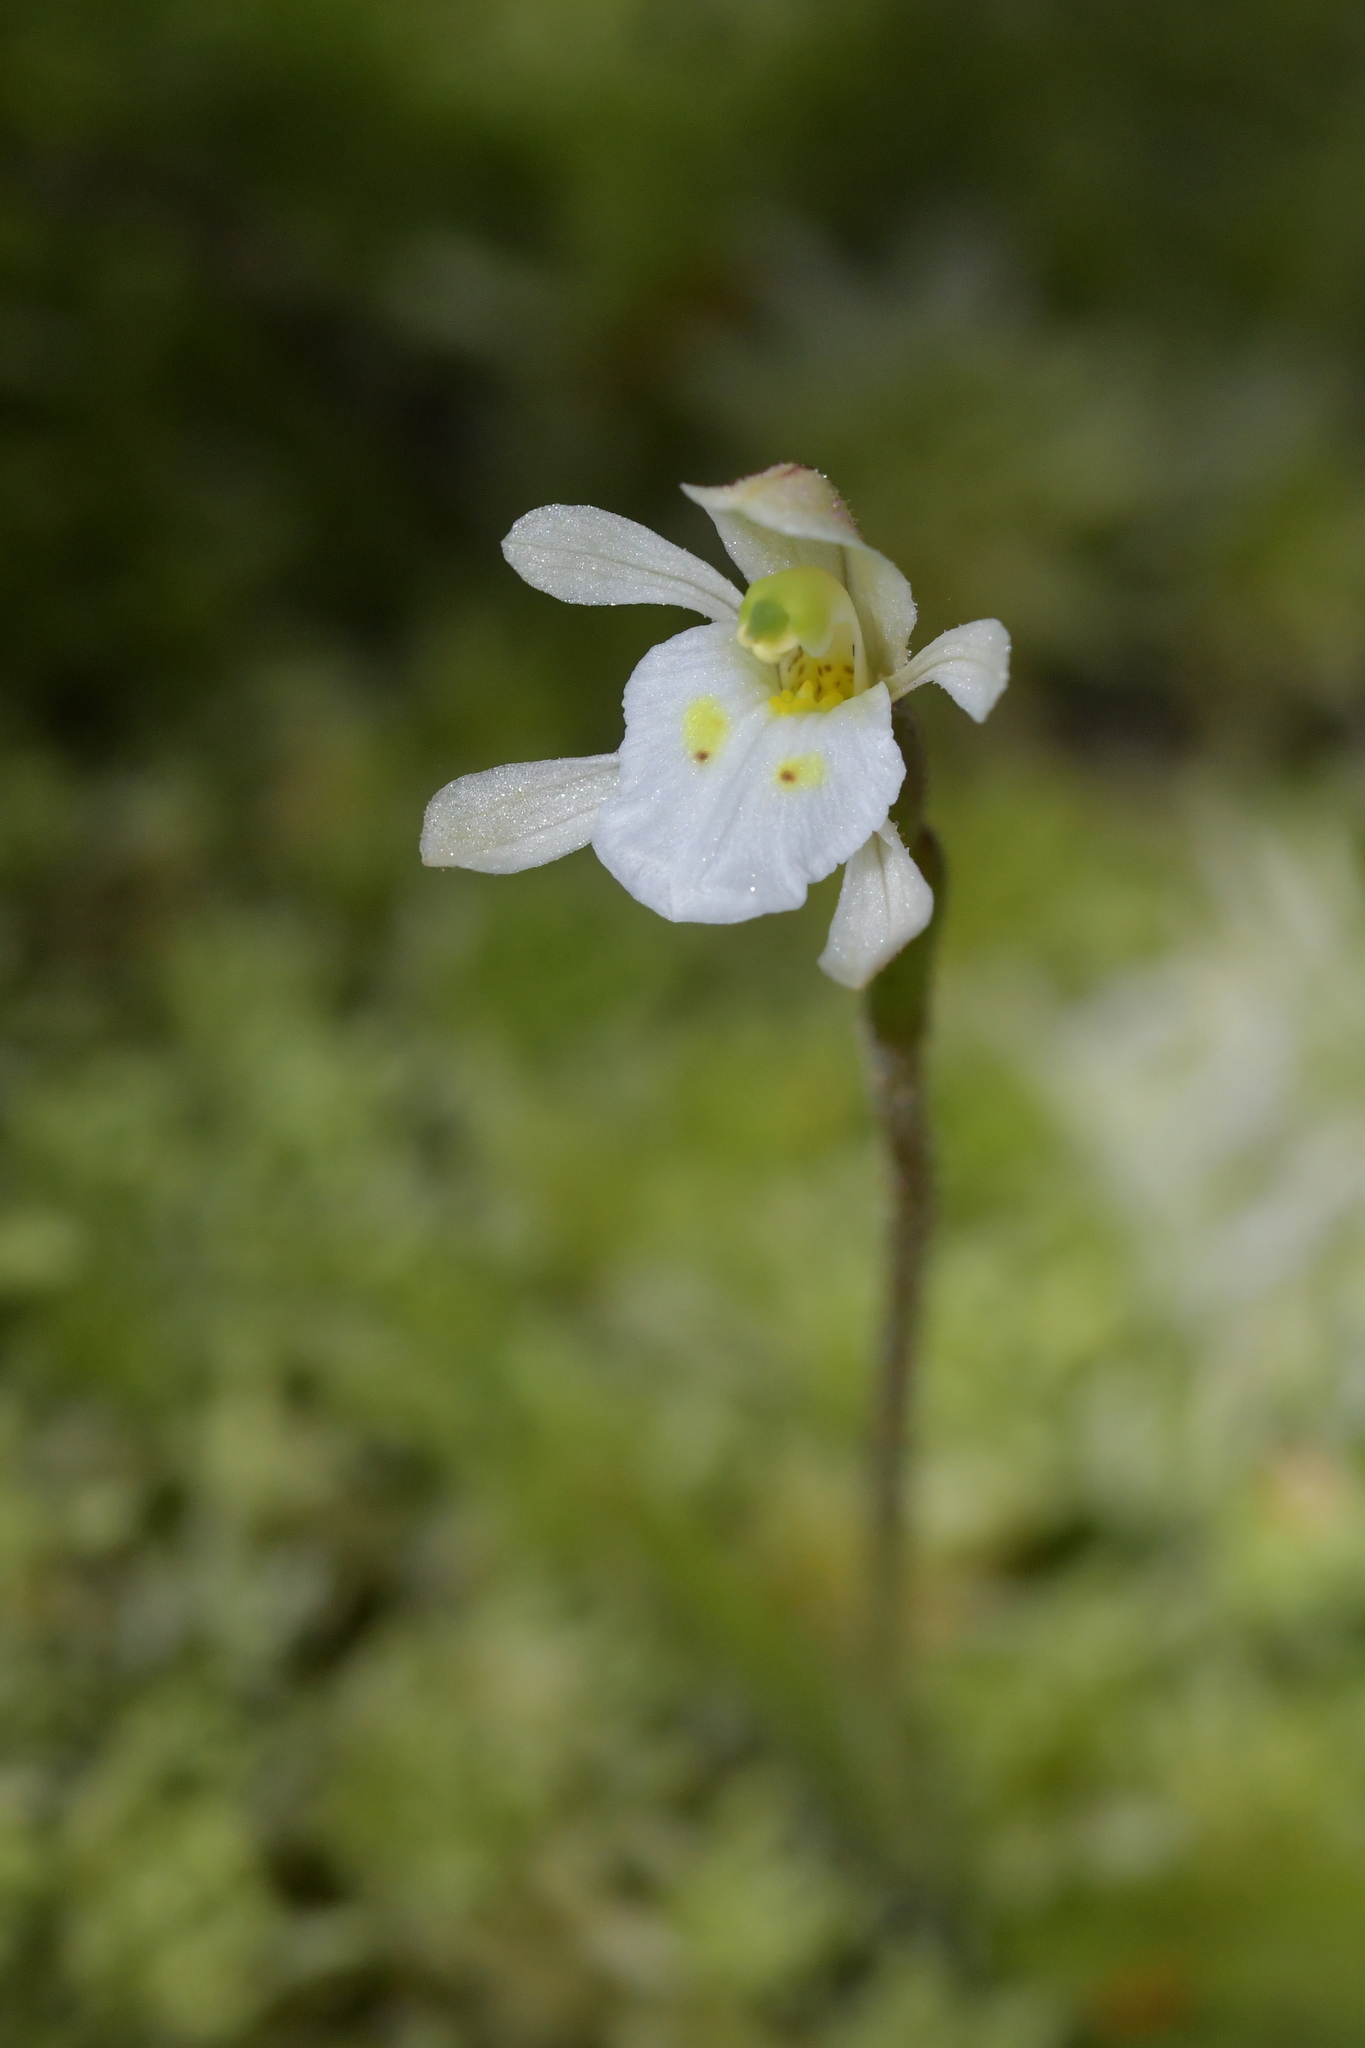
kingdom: Plantae
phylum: Tracheophyta
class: Liliopsida
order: Asparagales
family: Orchidaceae
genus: Aporostylis
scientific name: Aporostylis bifolia
